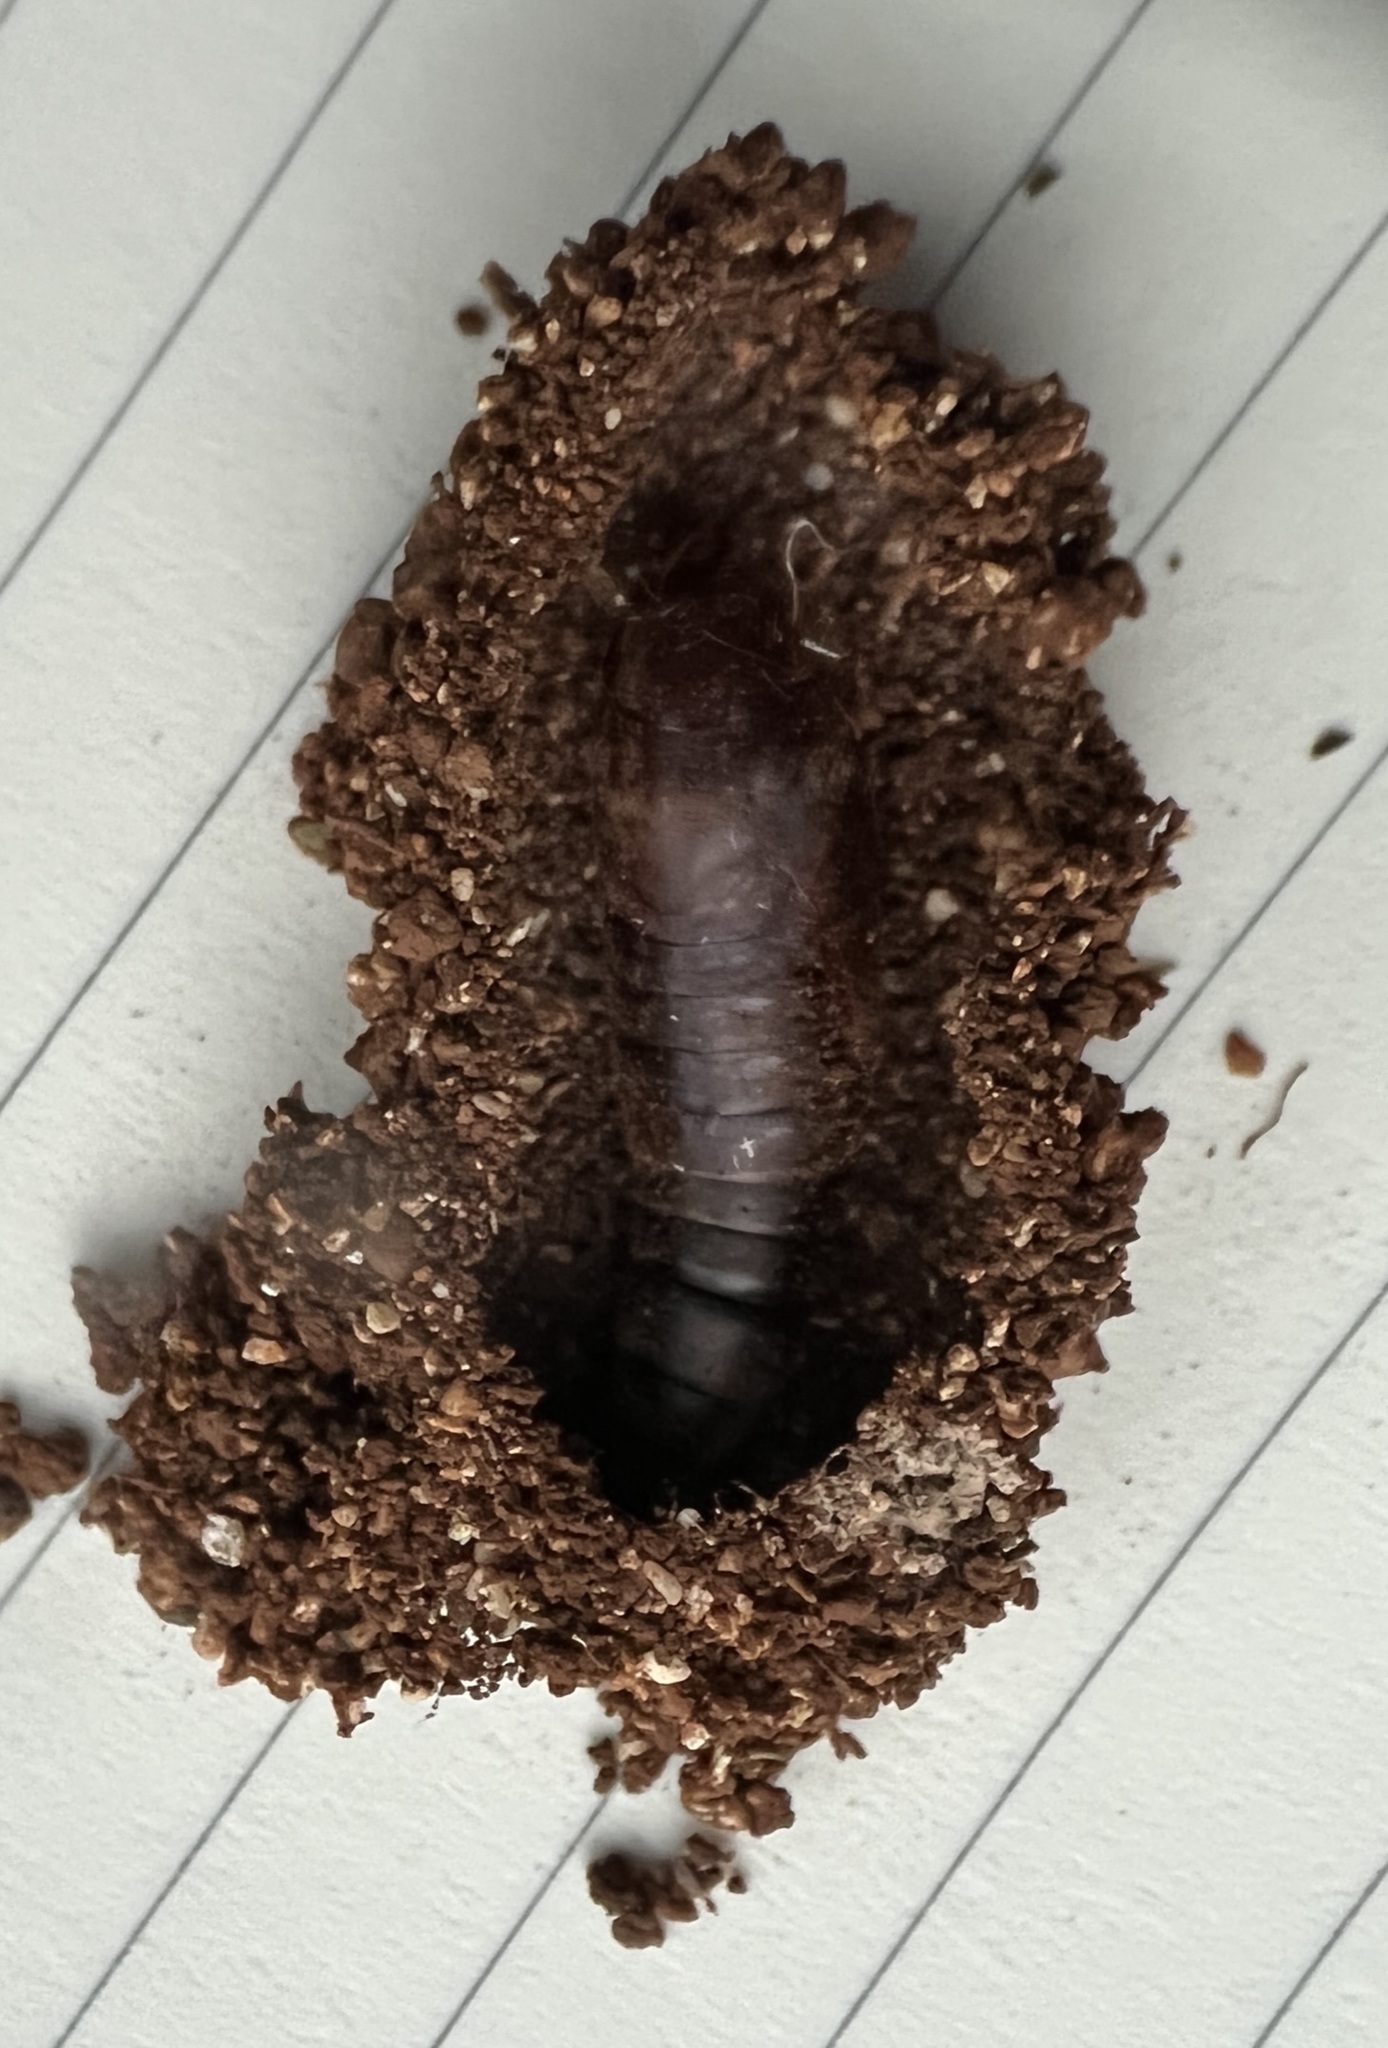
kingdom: Animalia
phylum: Arthropoda
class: Insecta
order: Lepidoptera
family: Erebidae
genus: Melipotis
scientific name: Melipotis acontioides
